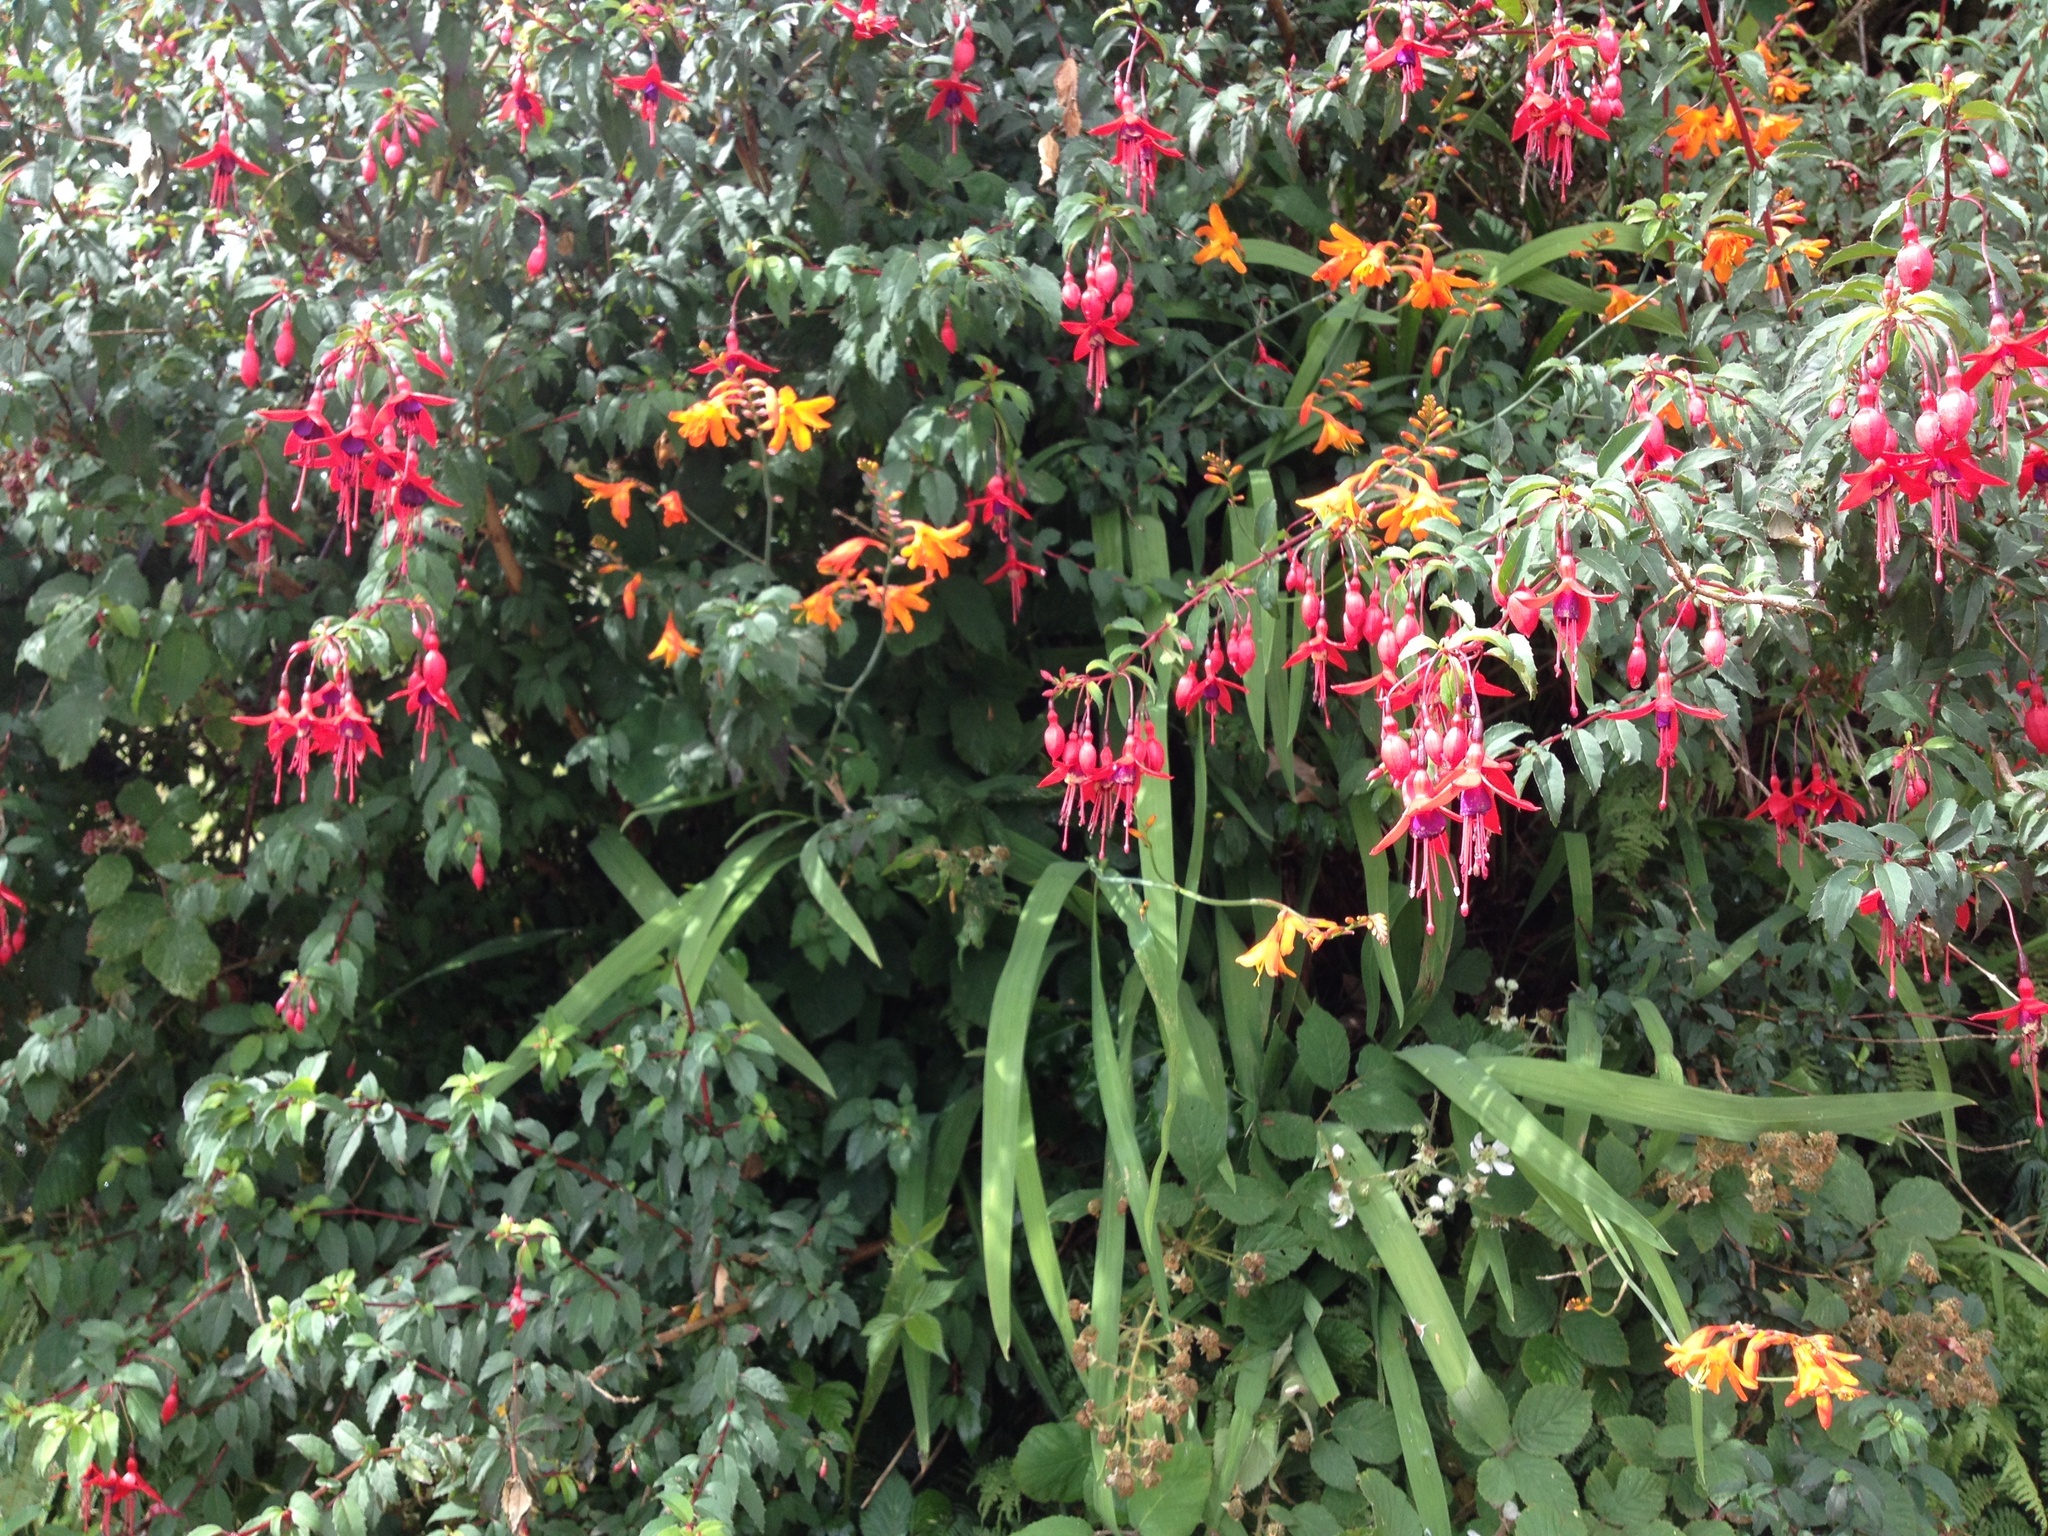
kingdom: Plantae
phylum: Tracheophyta
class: Magnoliopsida
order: Myrtales
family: Onagraceae
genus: Fuchsia
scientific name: Fuchsia magellanica
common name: Hardy fuchsia
